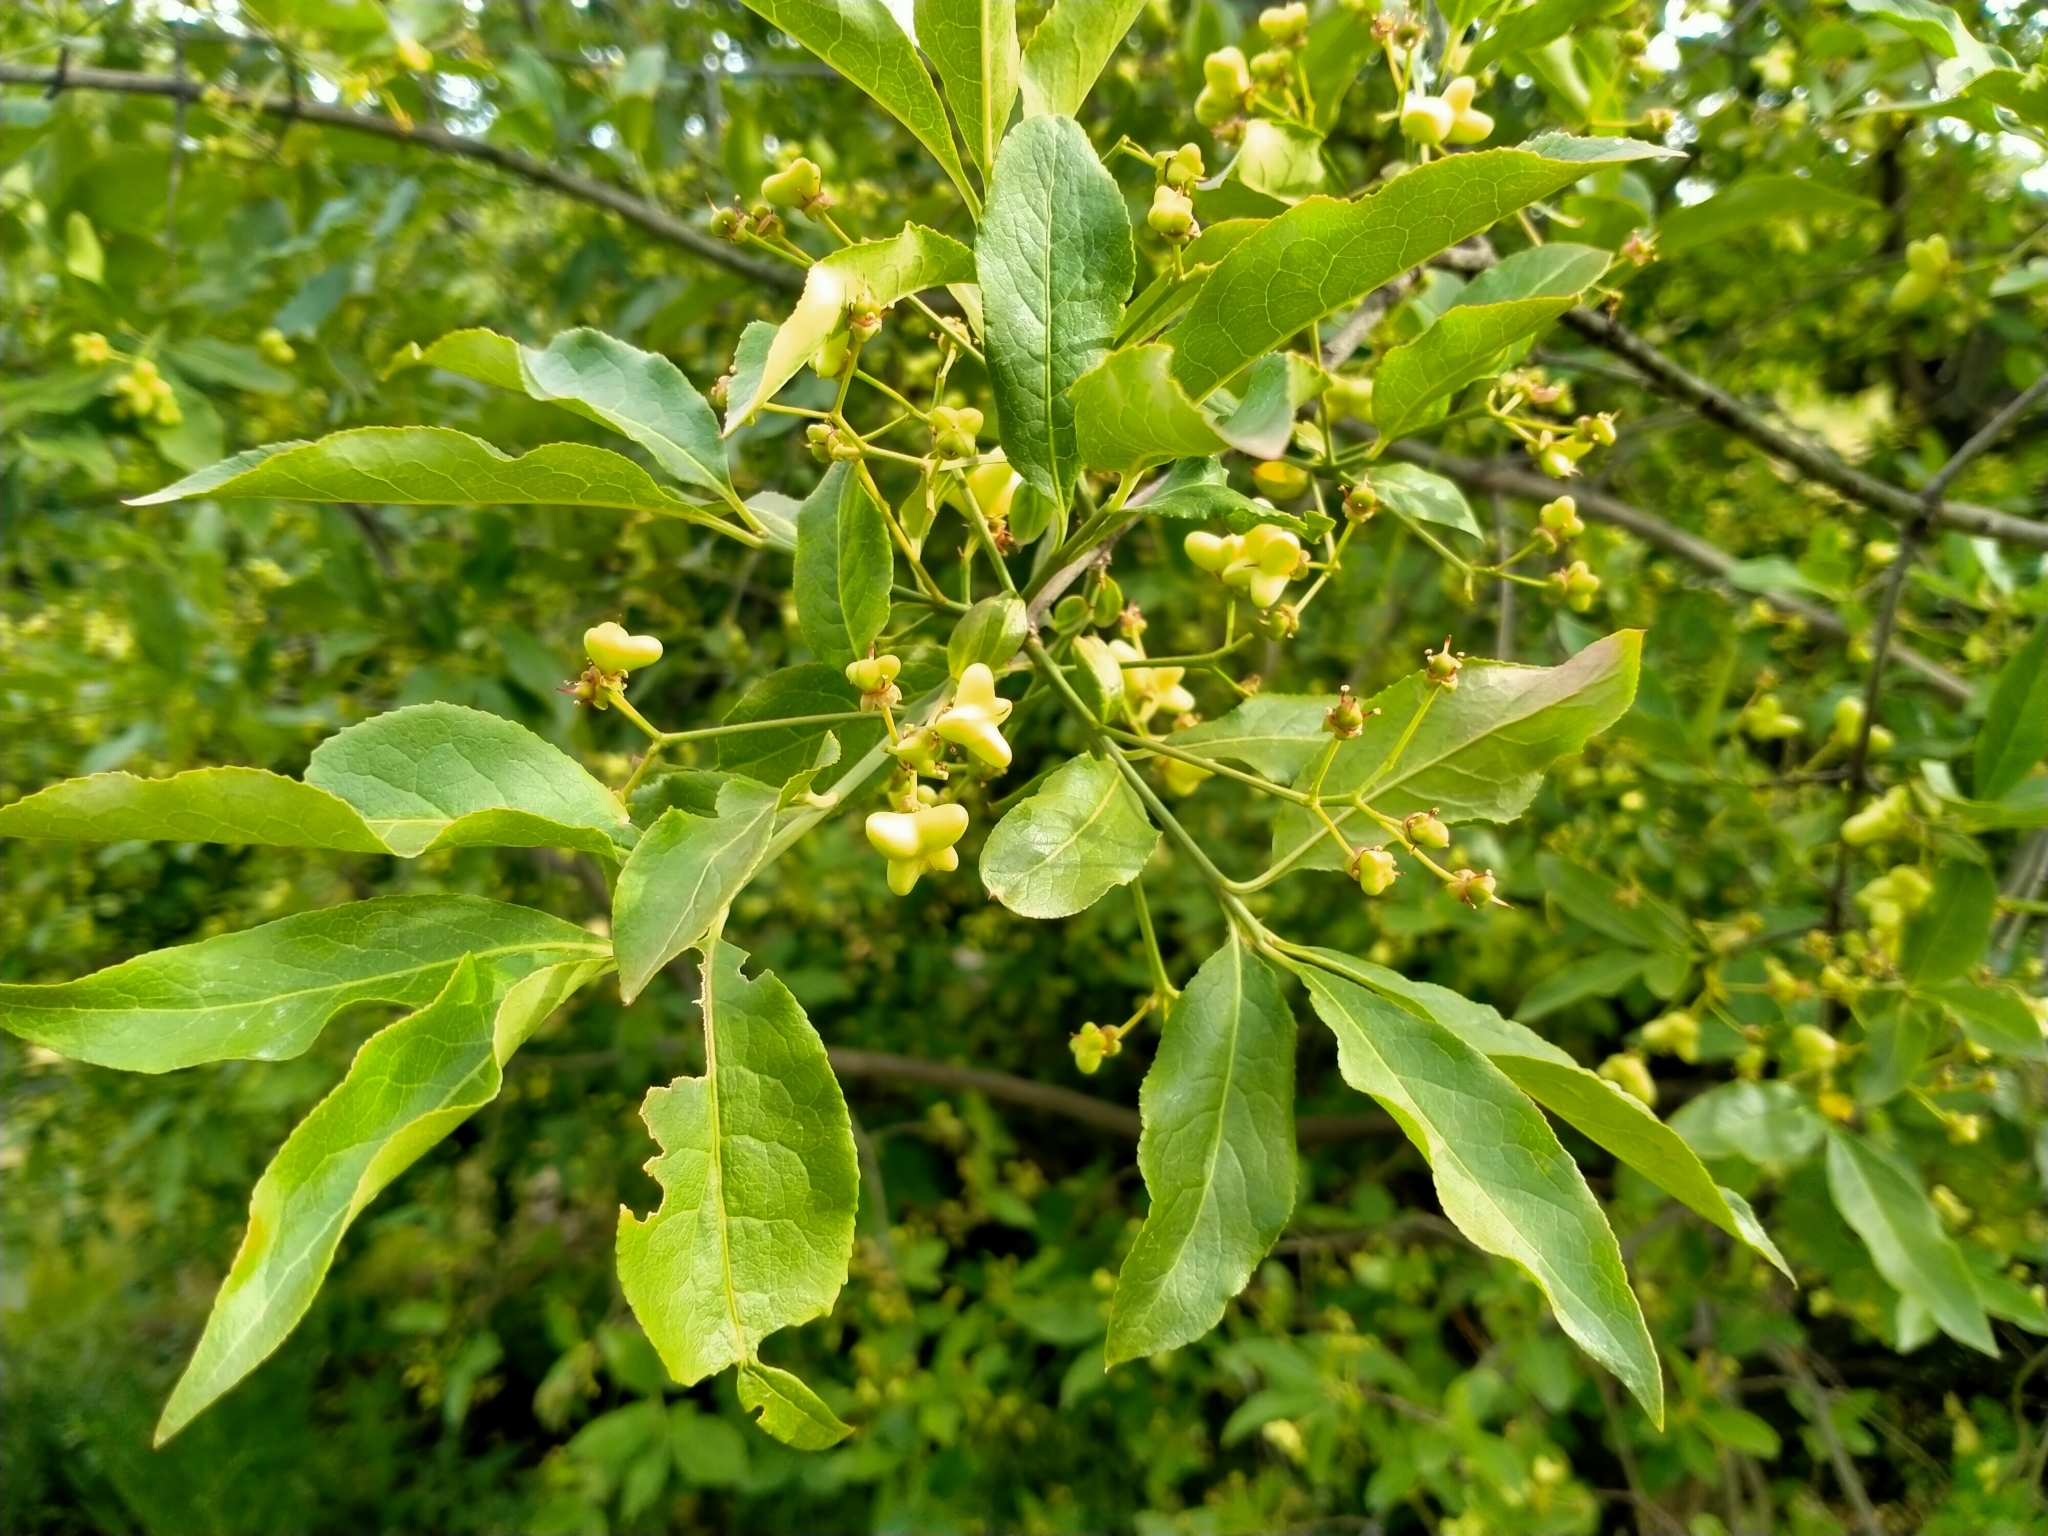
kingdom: Plantae
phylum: Tracheophyta
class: Magnoliopsida
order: Celastrales
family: Celastraceae
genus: Euonymus
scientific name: Euonymus europaeus
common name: Spindle
